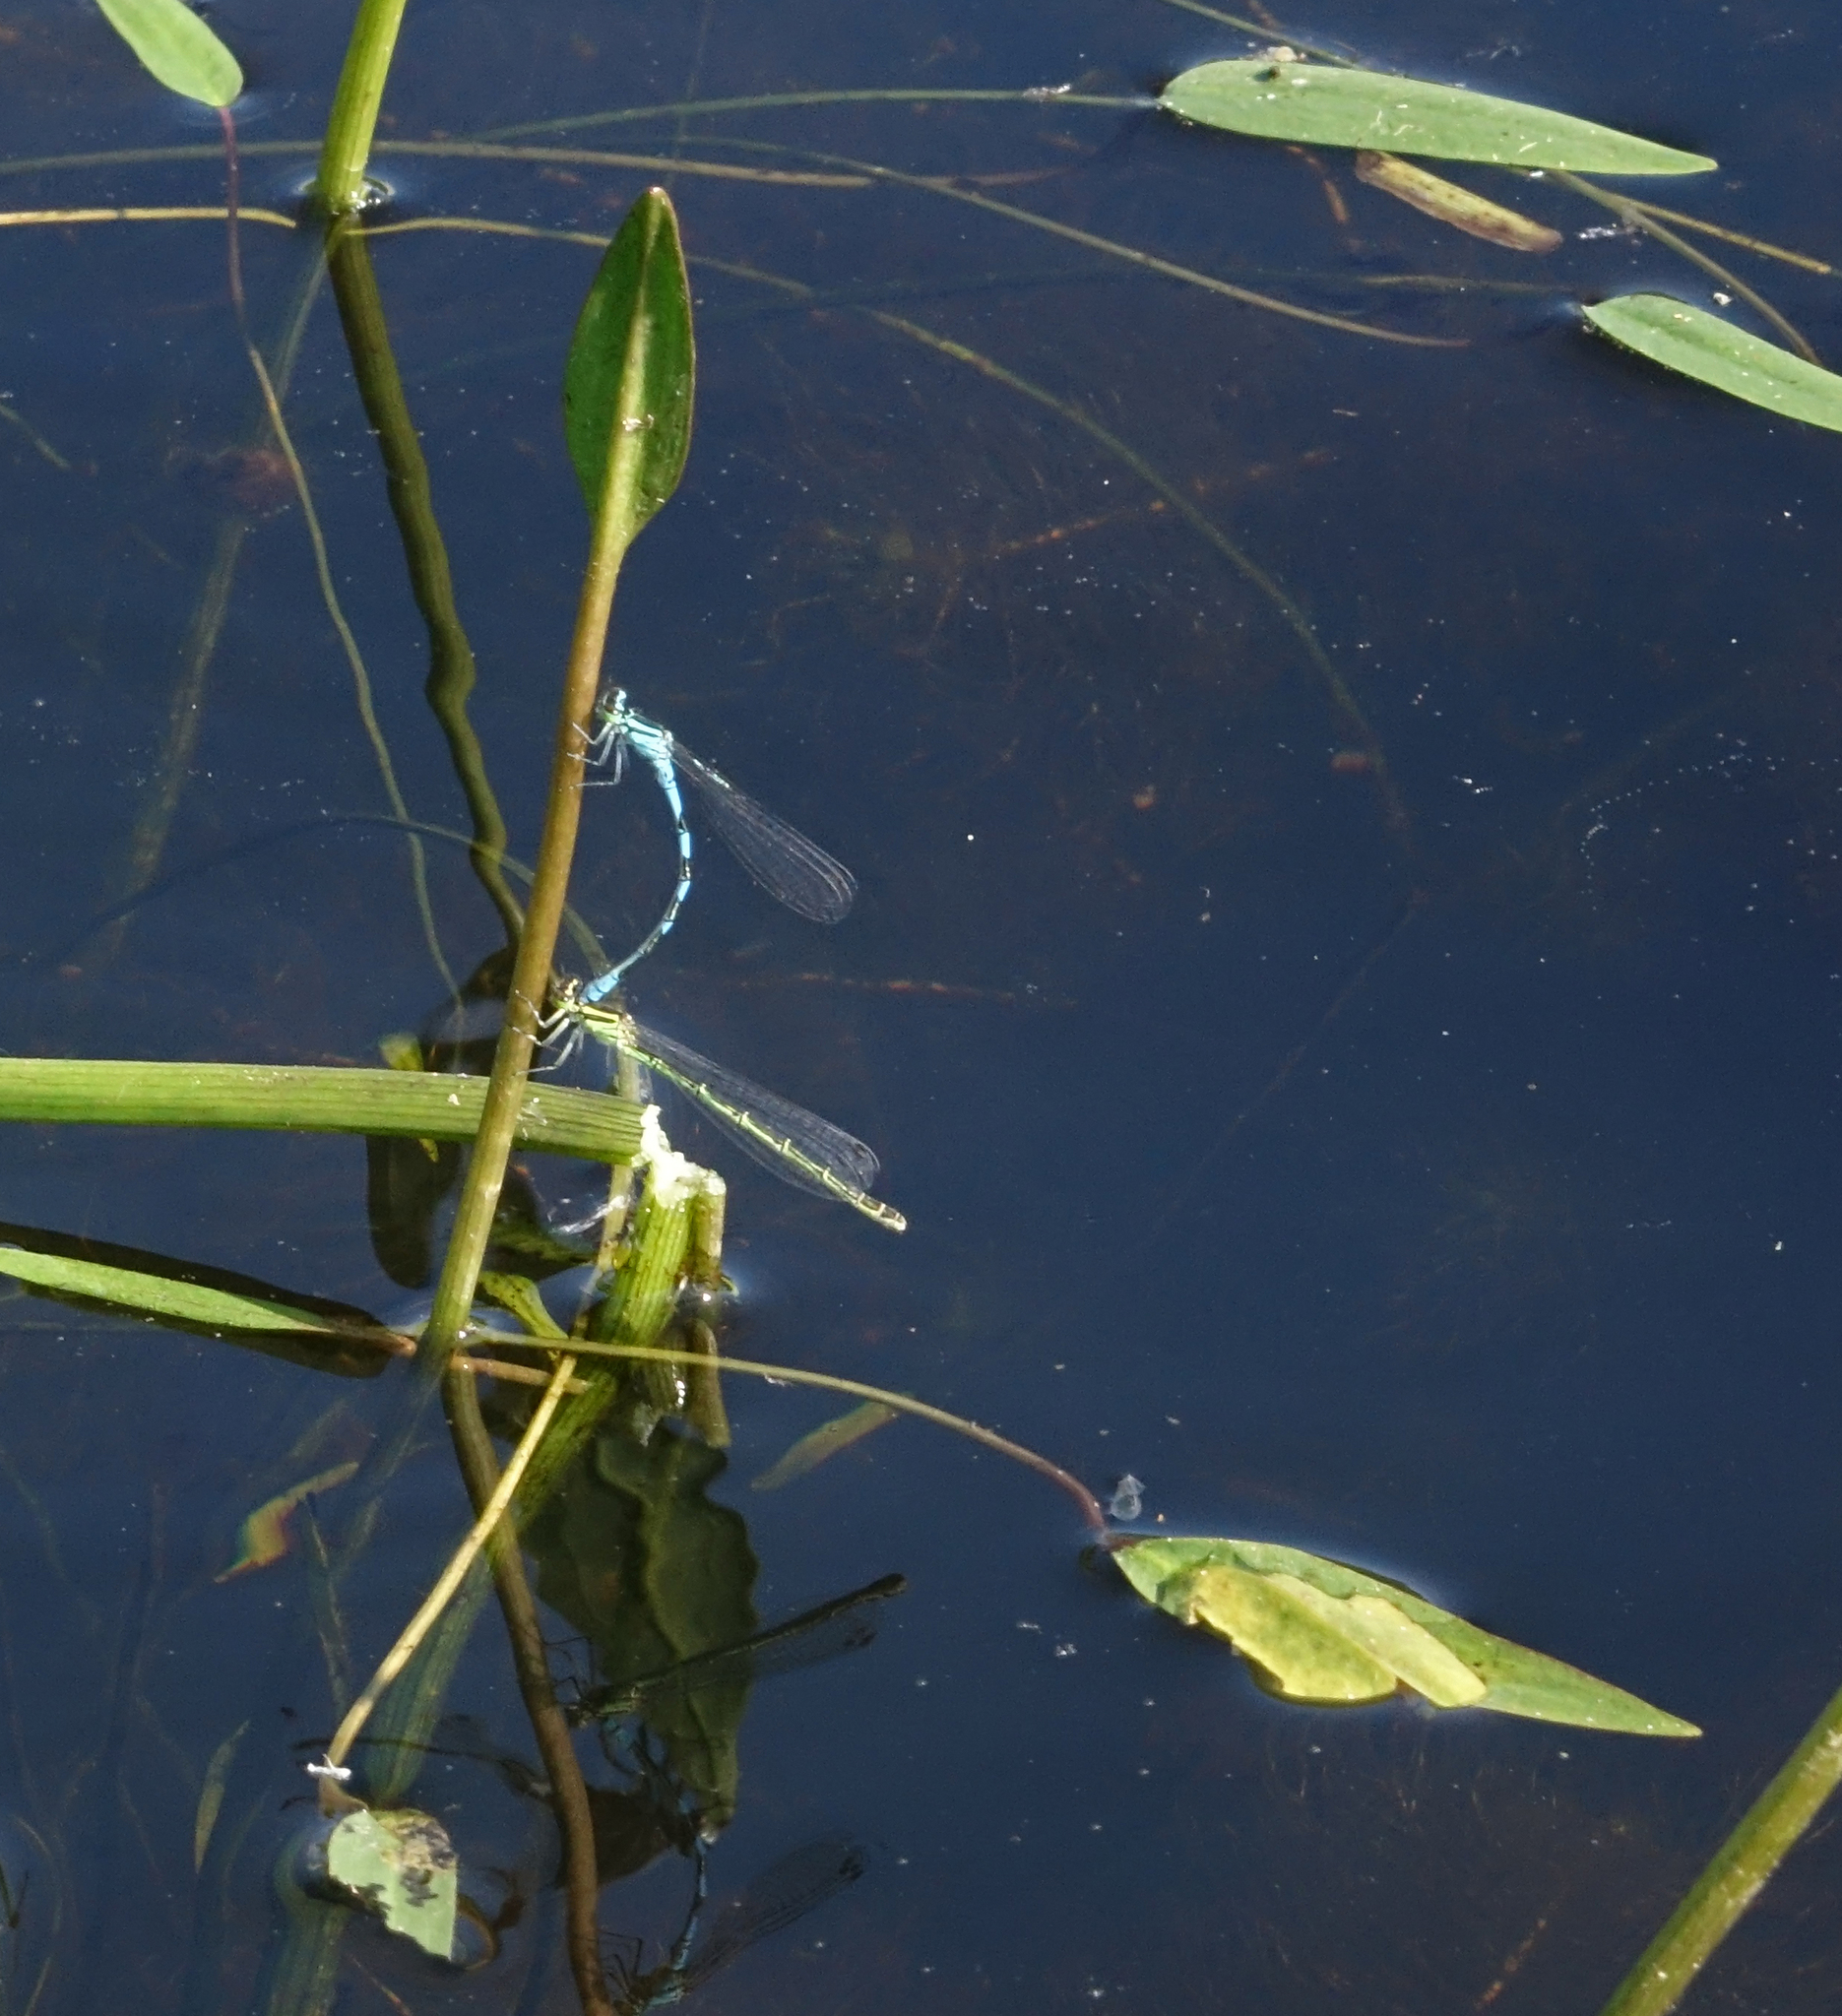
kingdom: Animalia
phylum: Arthropoda
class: Insecta
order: Odonata
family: Coenagrionidae
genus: Coenagrion
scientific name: Coenagrion hastulatum
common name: Spearhead bluet
